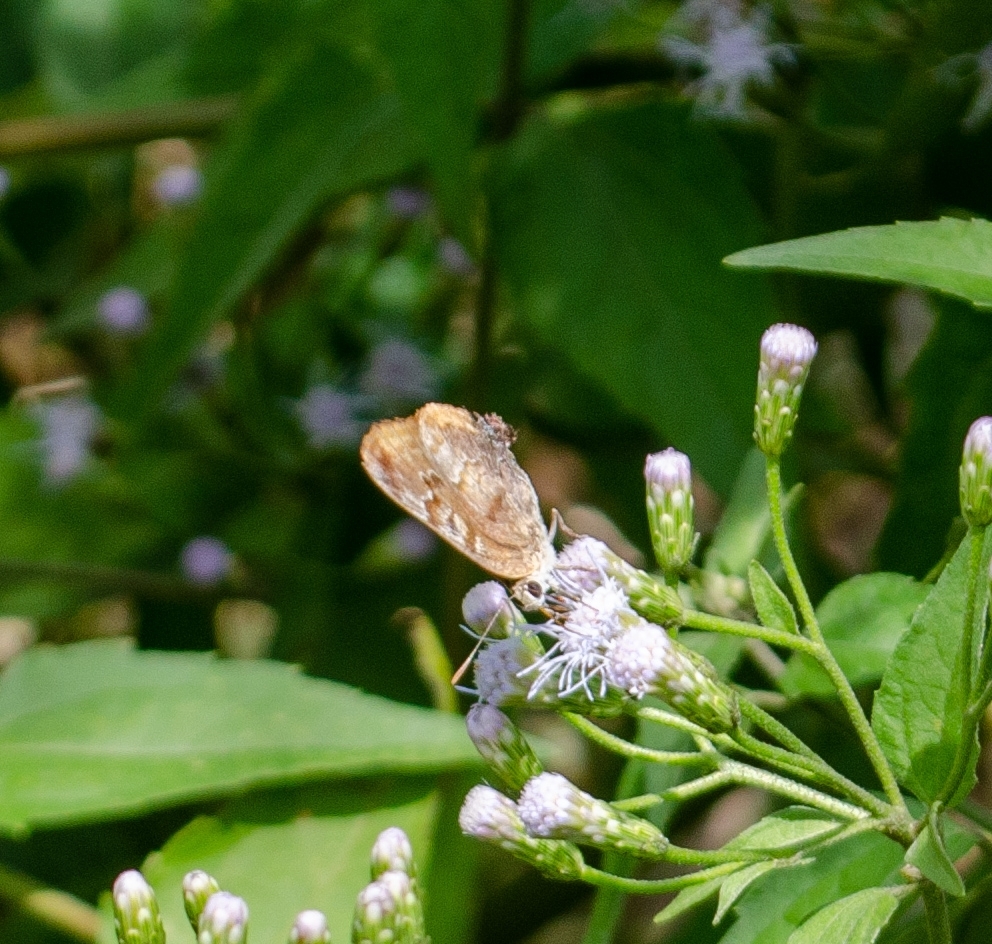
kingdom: Animalia
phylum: Arthropoda
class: Insecta
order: Lepidoptera
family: Lycaenidae
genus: Rekoa
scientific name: Rekoa palegon
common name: Gold-bordered hairstreak
